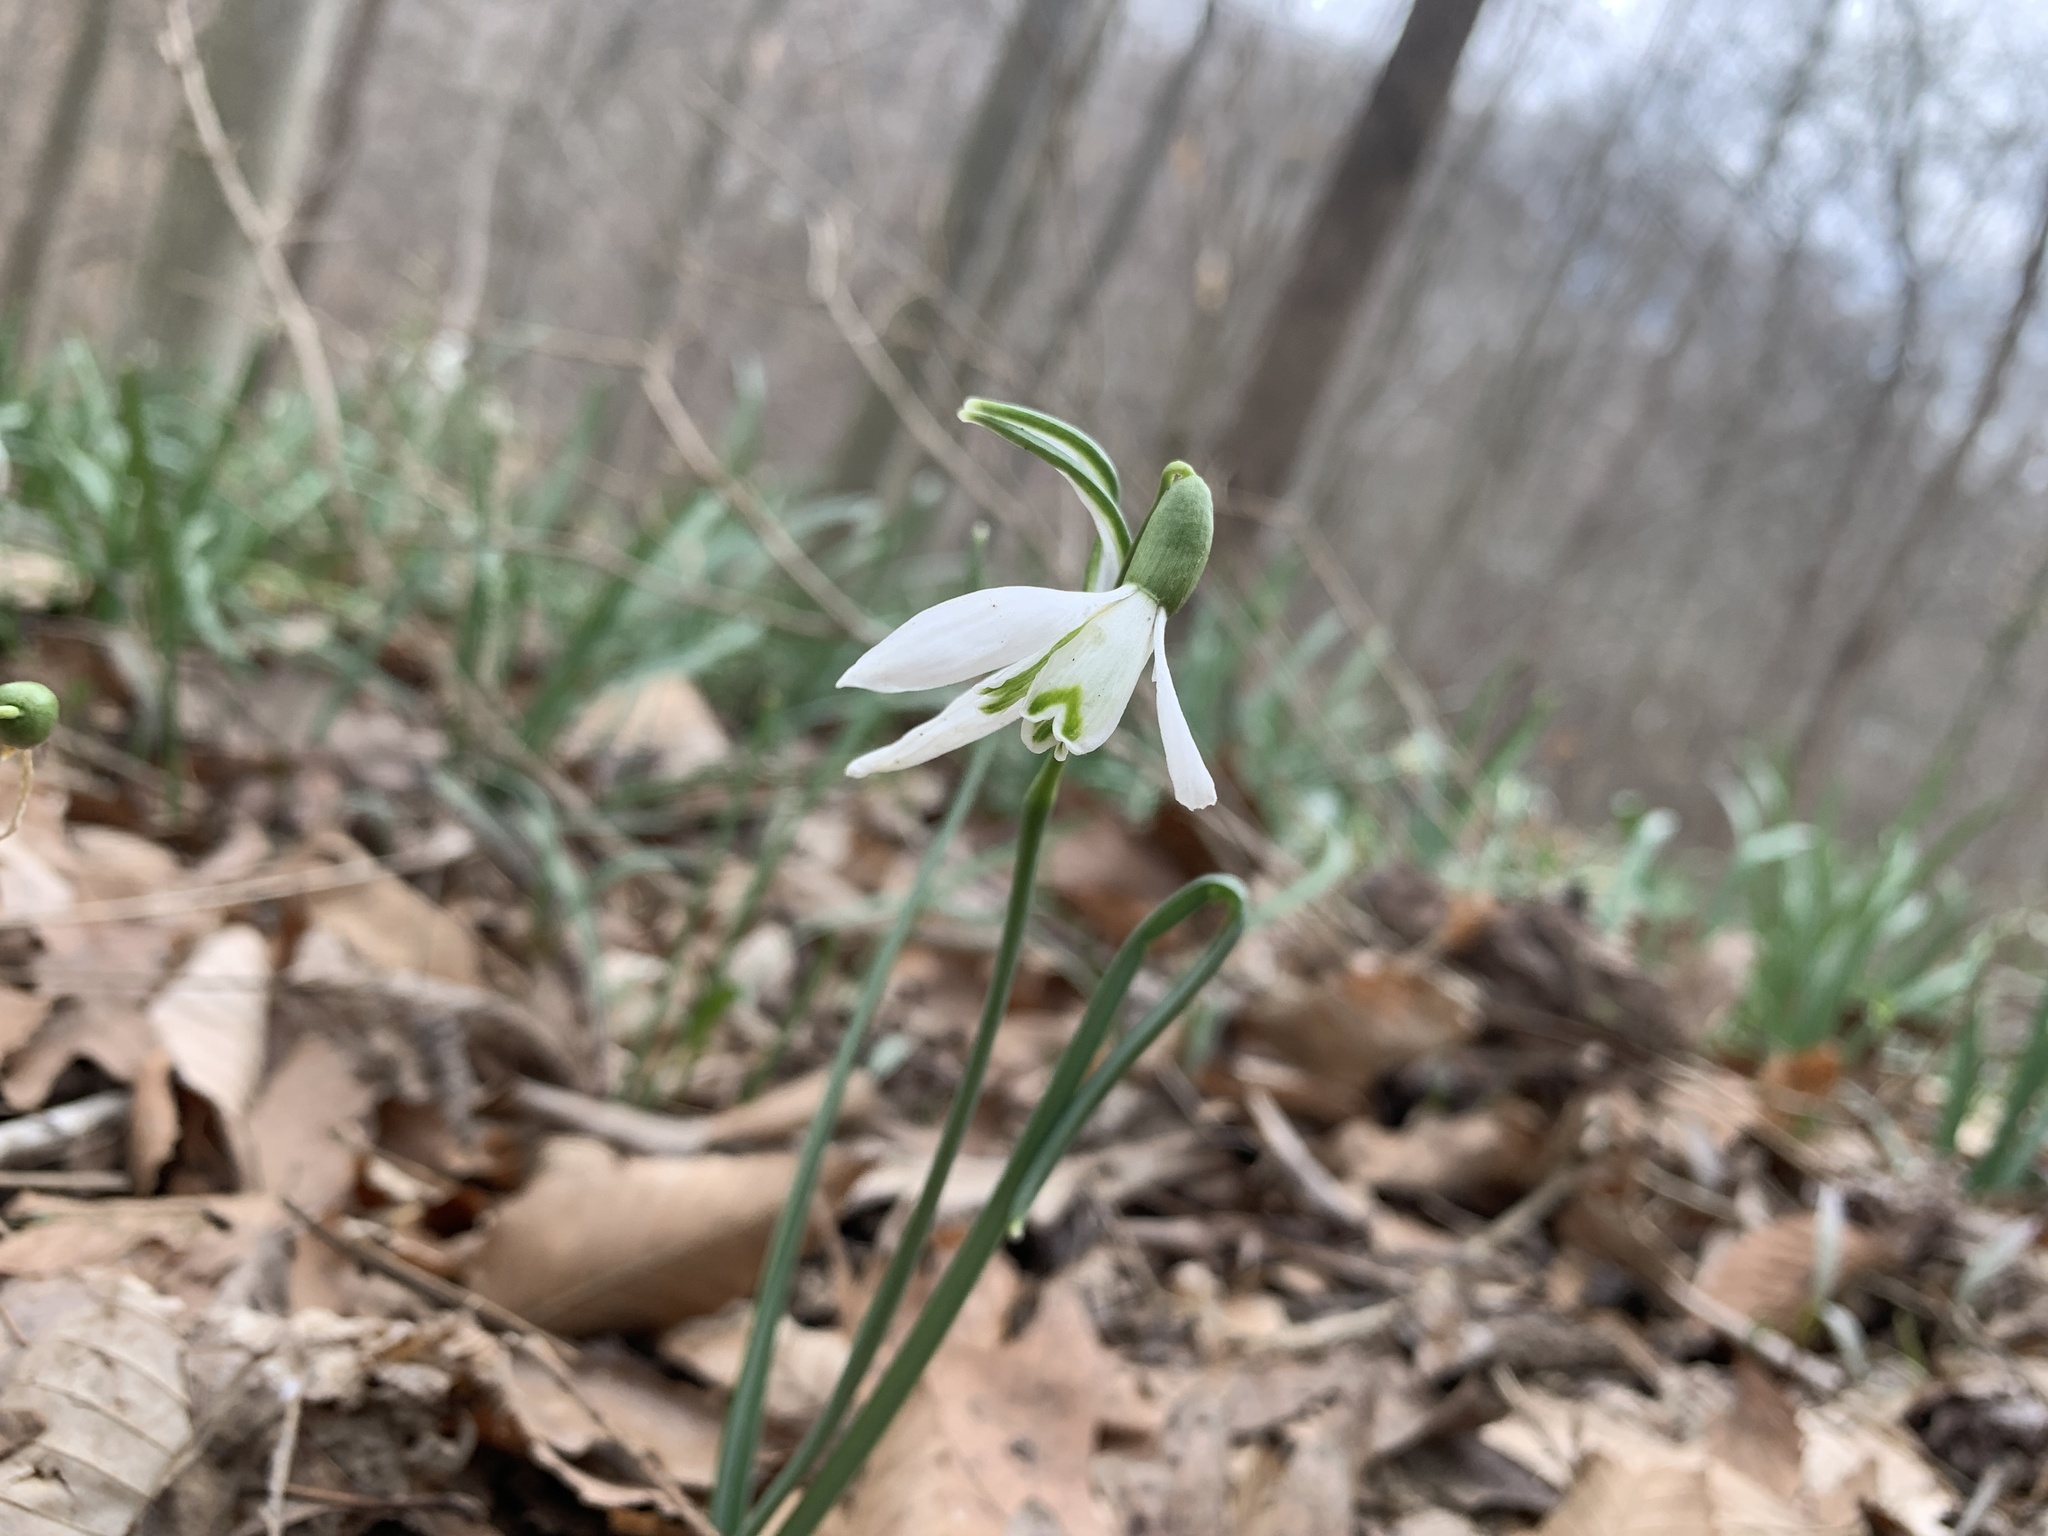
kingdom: Plantae
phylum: Tracheophyta
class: Liliopsida
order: Asparagales
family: Amaryllidaceae
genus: Galanthus
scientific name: Galanthus nivalis
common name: Snowdrop
